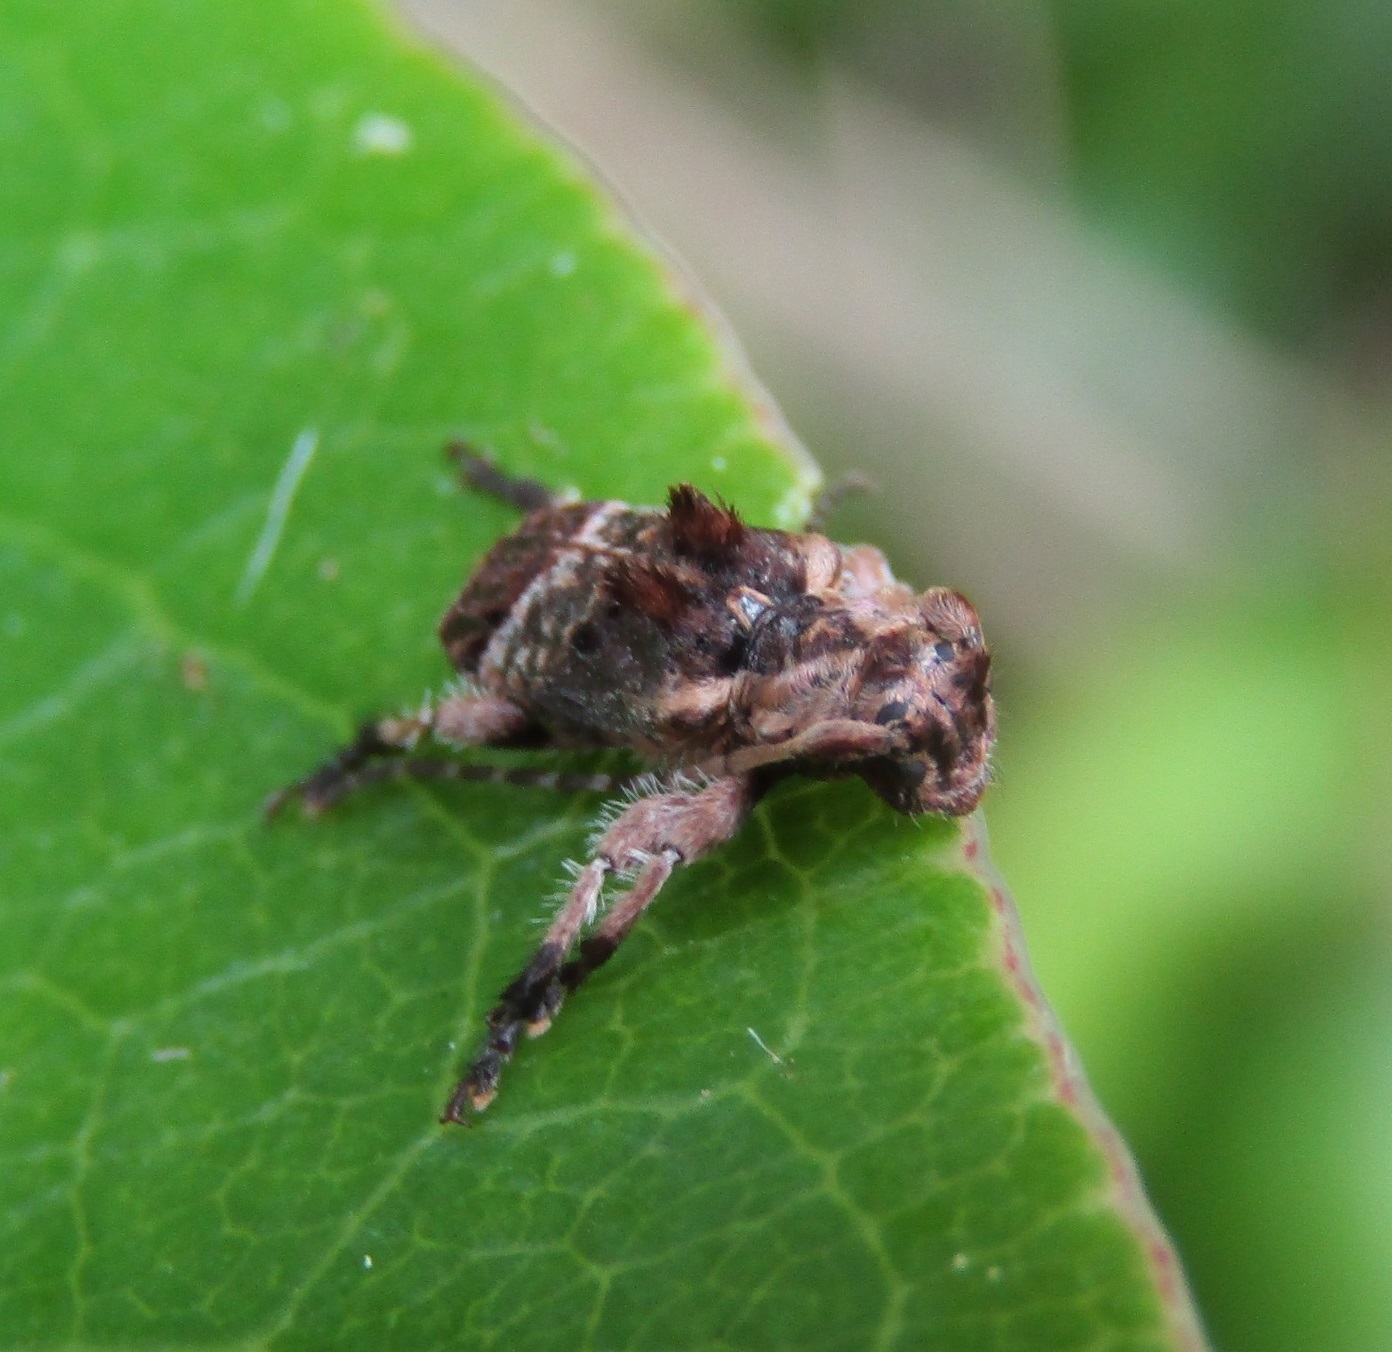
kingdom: Animalia
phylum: Arthropoda
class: Insecta
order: Coleoptera
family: Cerambycidae
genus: Hybolasius
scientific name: Hybolasius cristus
